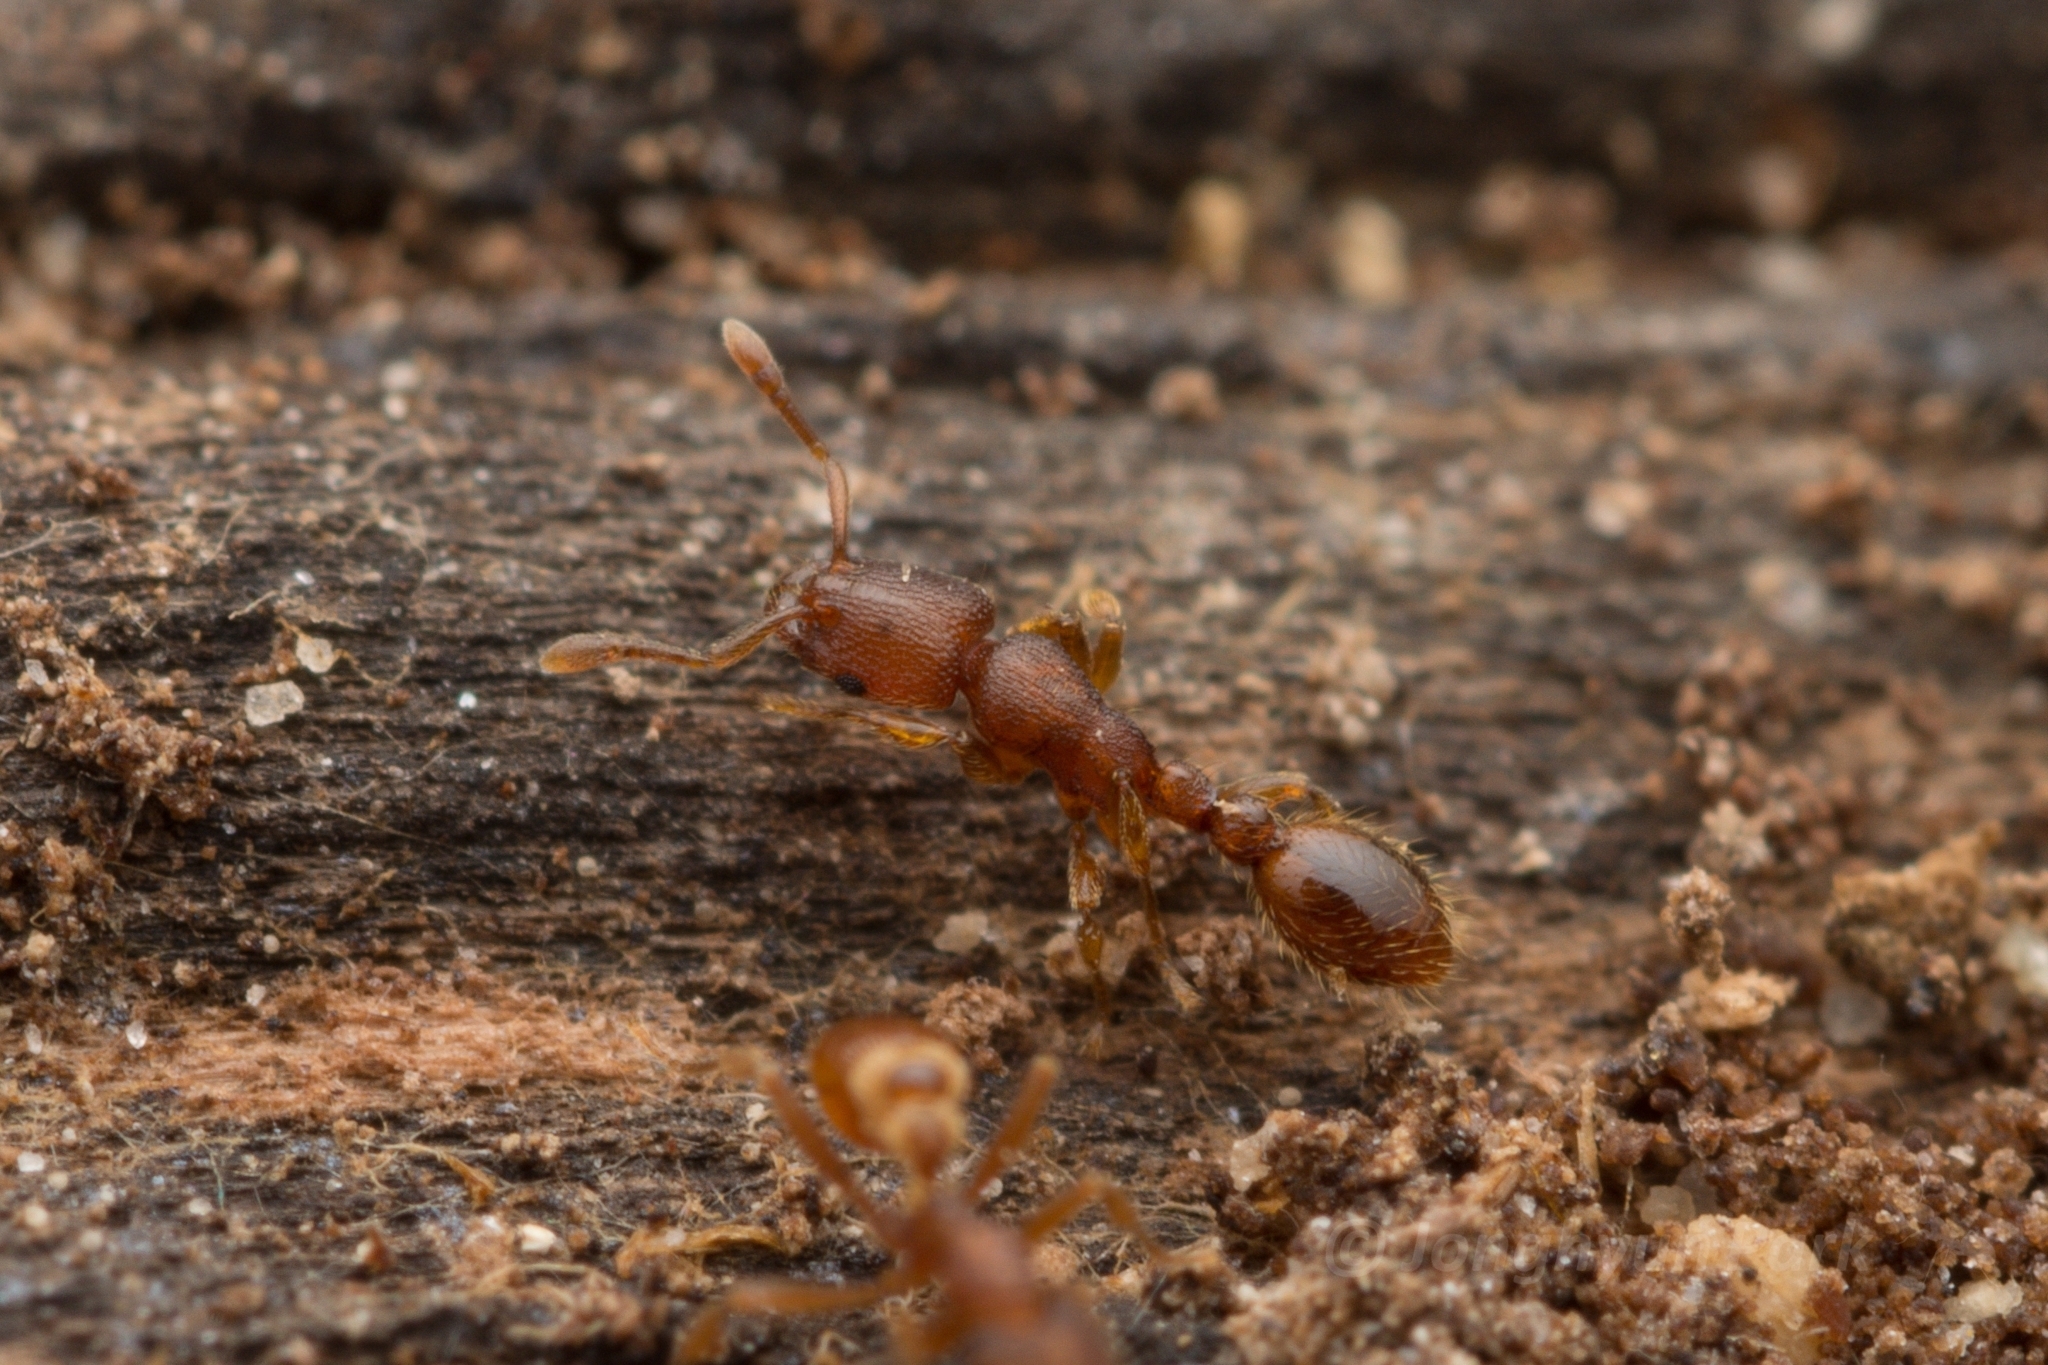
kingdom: Animalia
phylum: Arthropoda
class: Insecta
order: Hymenoptera
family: Formicidae
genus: Vollenhovia
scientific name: Vollenhovia emeryi
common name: Ant
